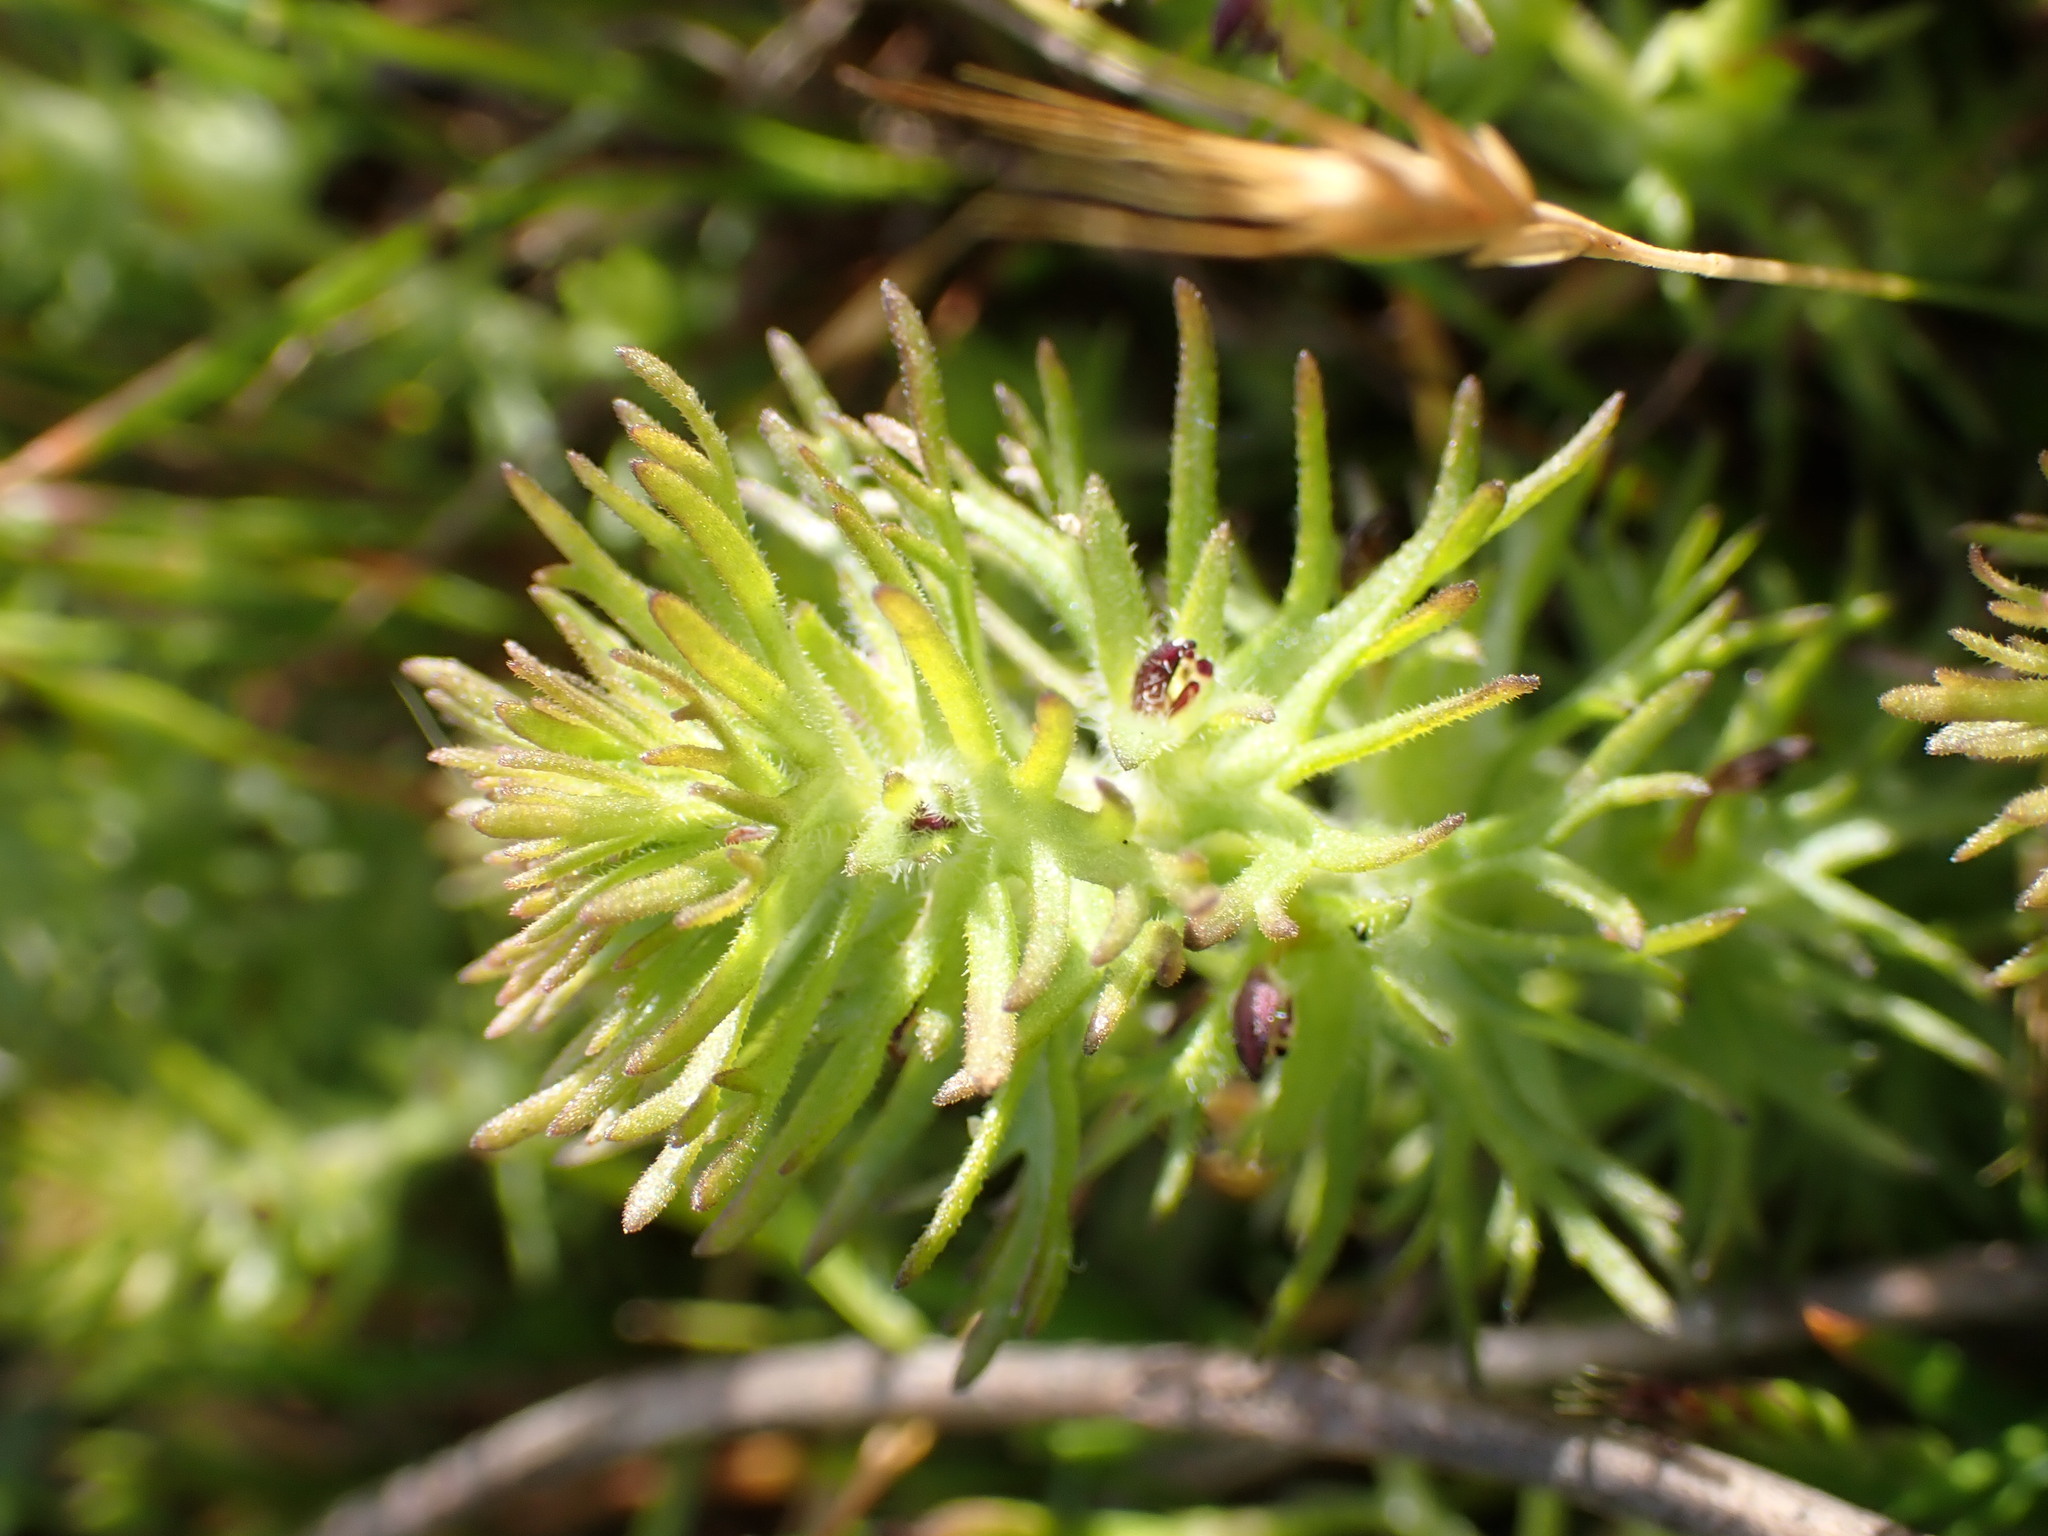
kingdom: Plantae
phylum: Tracheophyta
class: Magnoliopsida
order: Lamiales
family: Orobanchaceae
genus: Triphysaria
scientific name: Triphysaria pusilla
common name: Dwarf false owl-clover
